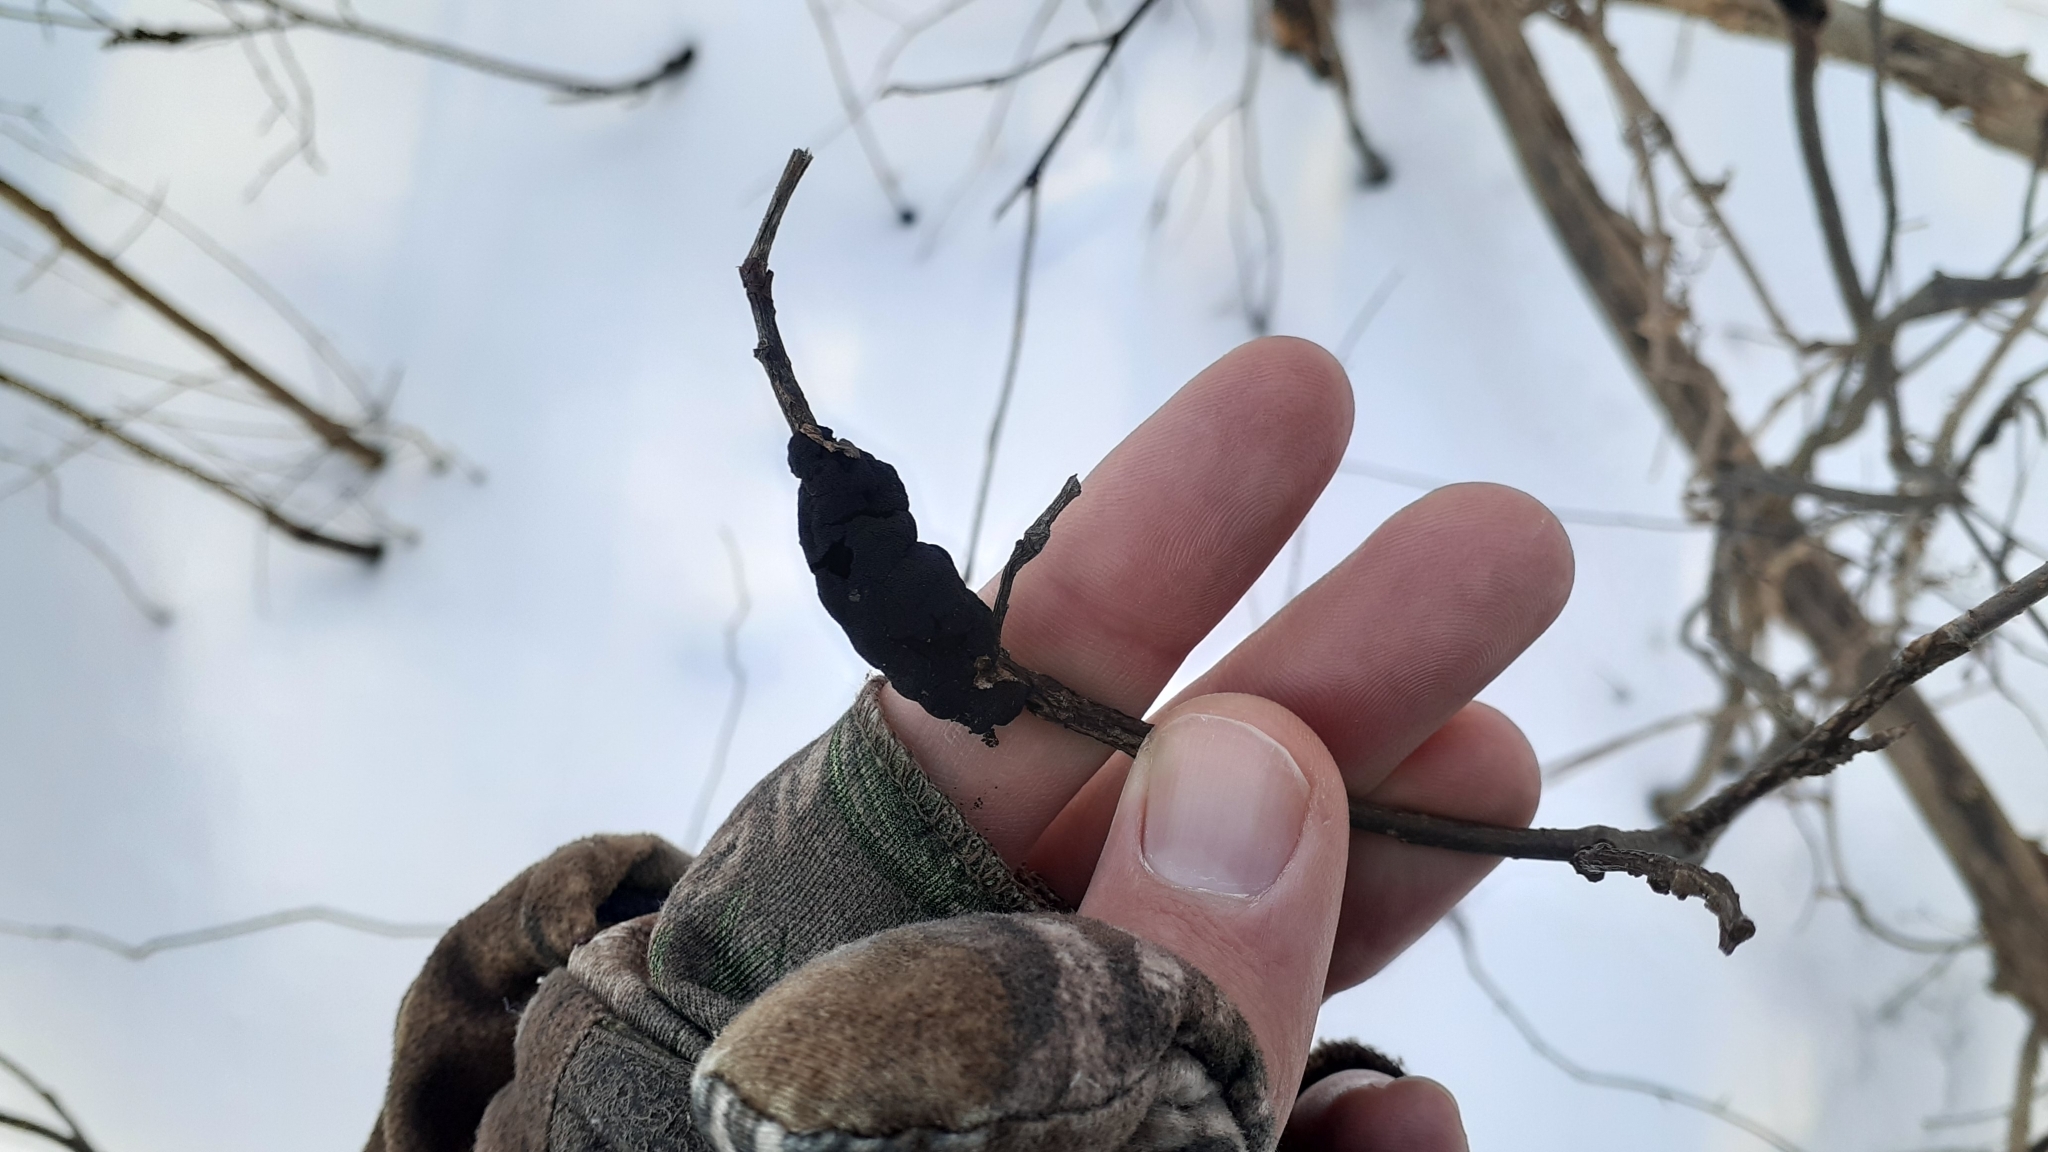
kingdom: Fungi
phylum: Ascomycota
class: Dothideomycetes
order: Venturiales
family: Venturiaceae
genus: Apiosporina
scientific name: Apiosporina morbosa
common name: Black knot
